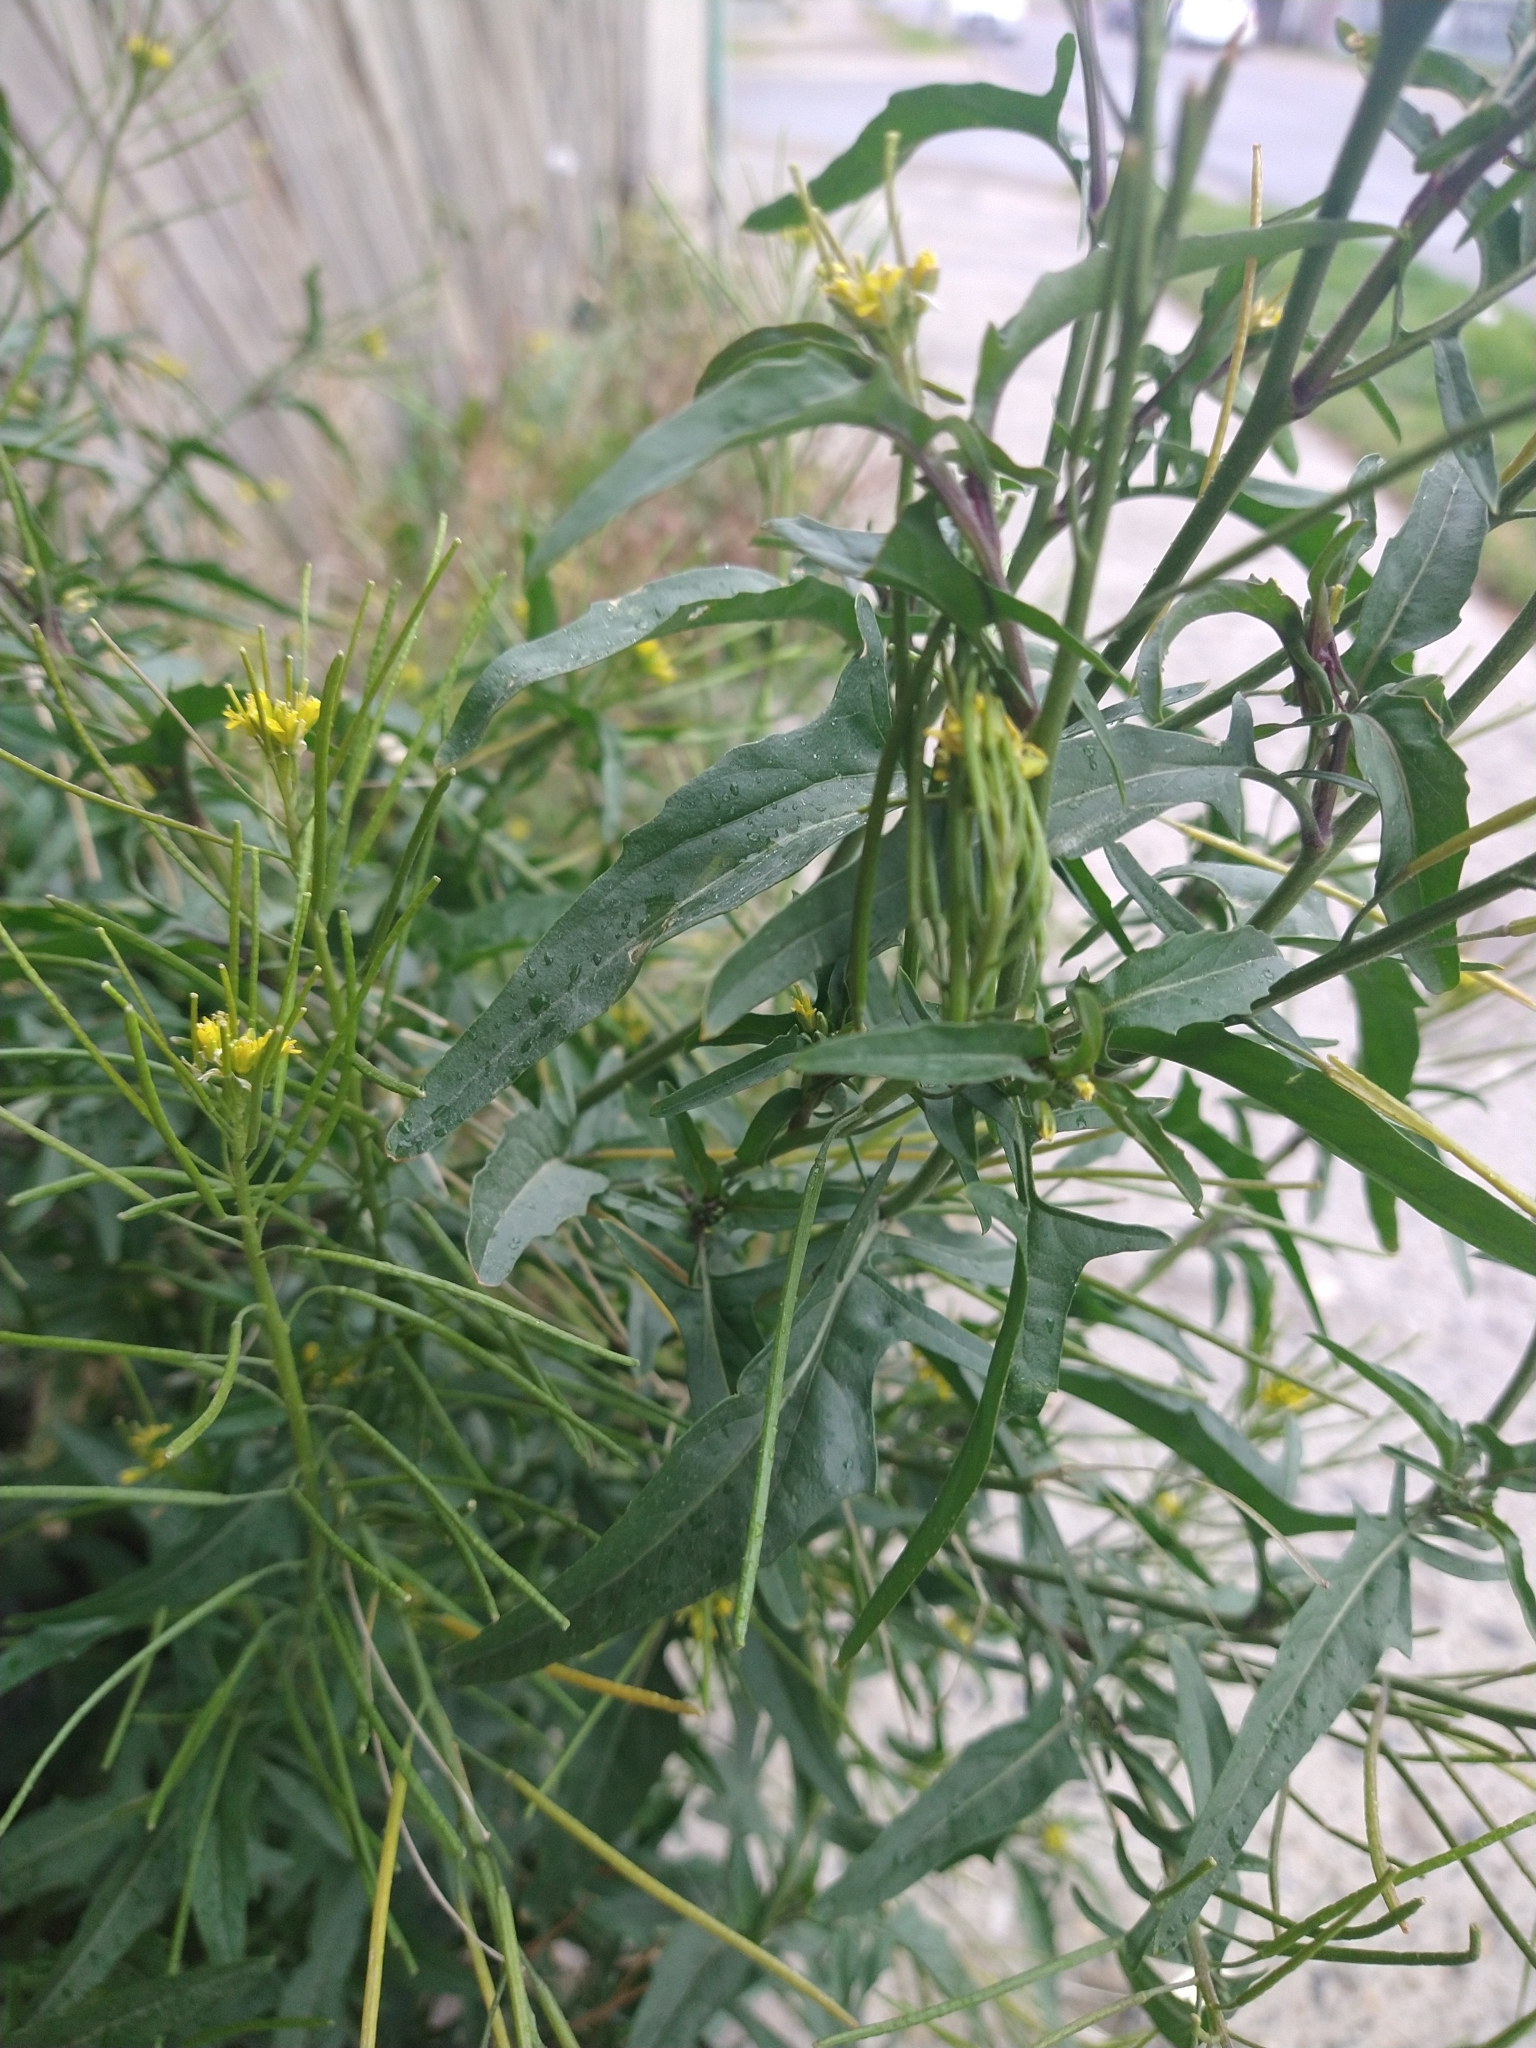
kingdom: Plantae
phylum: Tracheophyta
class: Magnoliopsida
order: Brassicales
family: Brassicaceae
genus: Brassica
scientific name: Brassica rapa
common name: Field mustard
